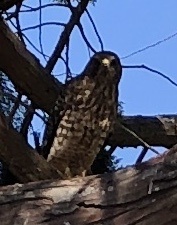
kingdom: Animalia
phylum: Chordata
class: Aves
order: Accipitriformes
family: Accipitridae
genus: Buteo
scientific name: Buteo lineatus
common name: Red-shouldered hawk
